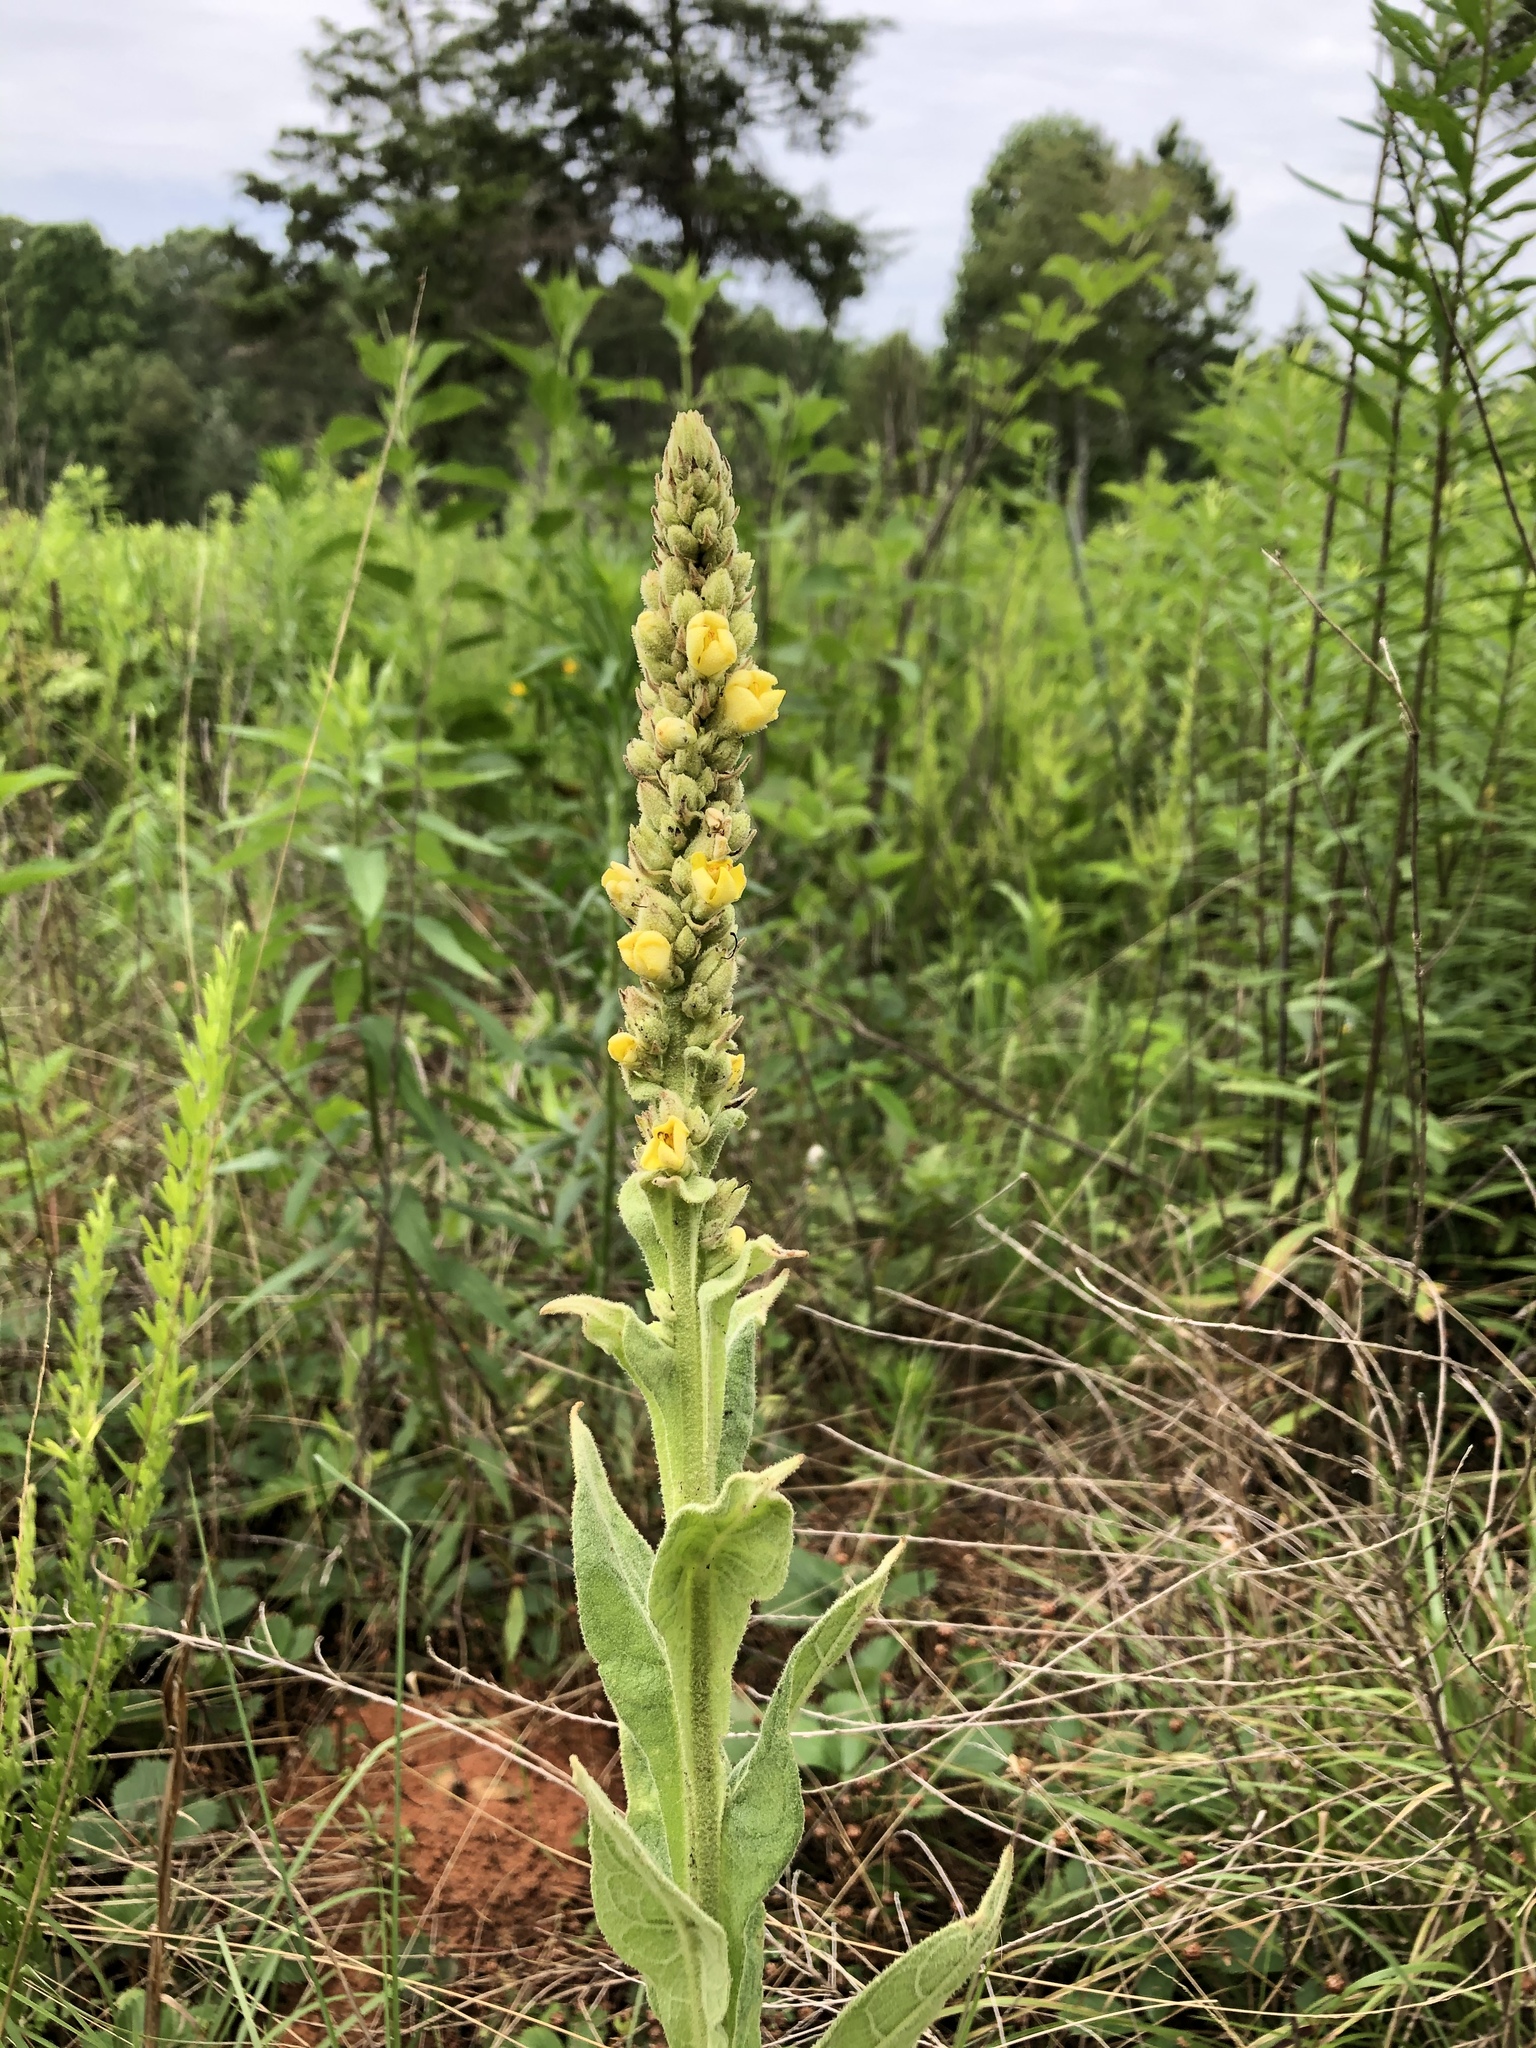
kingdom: Plantae
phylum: Tracheophyta
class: Magnoliopsida
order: Lamiales
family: Scrophulariaceae
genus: Verbascum
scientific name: Verbascum thapsus
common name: Common mullein
